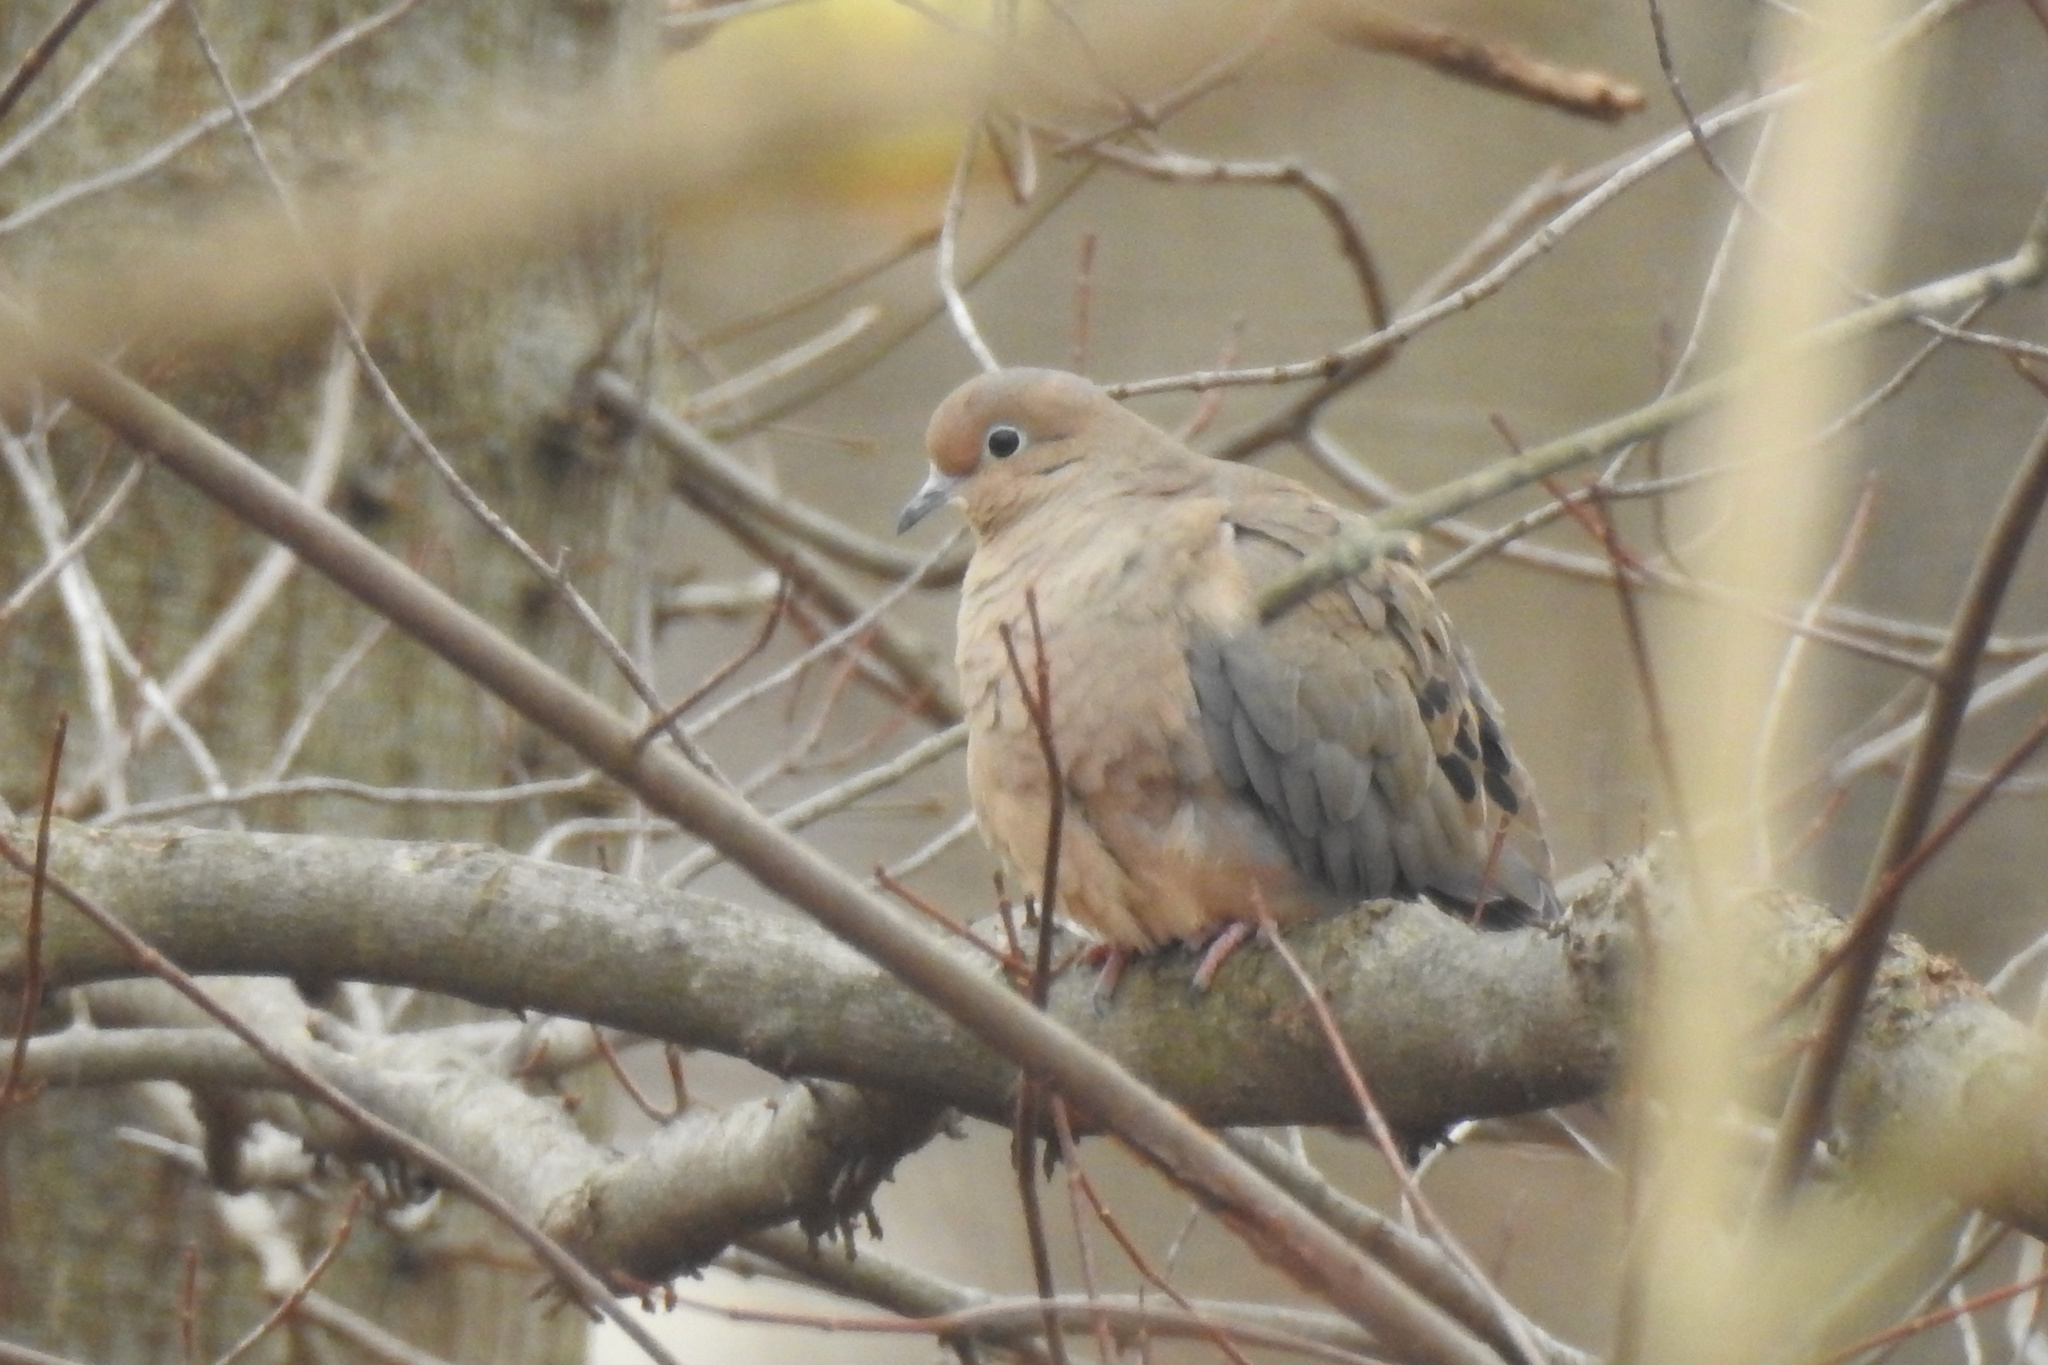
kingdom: Animalia
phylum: Chordata
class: Aves
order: Columbiformes
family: Columbidae
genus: Zenaida
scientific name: Zenaida macroura
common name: Mourning dove
